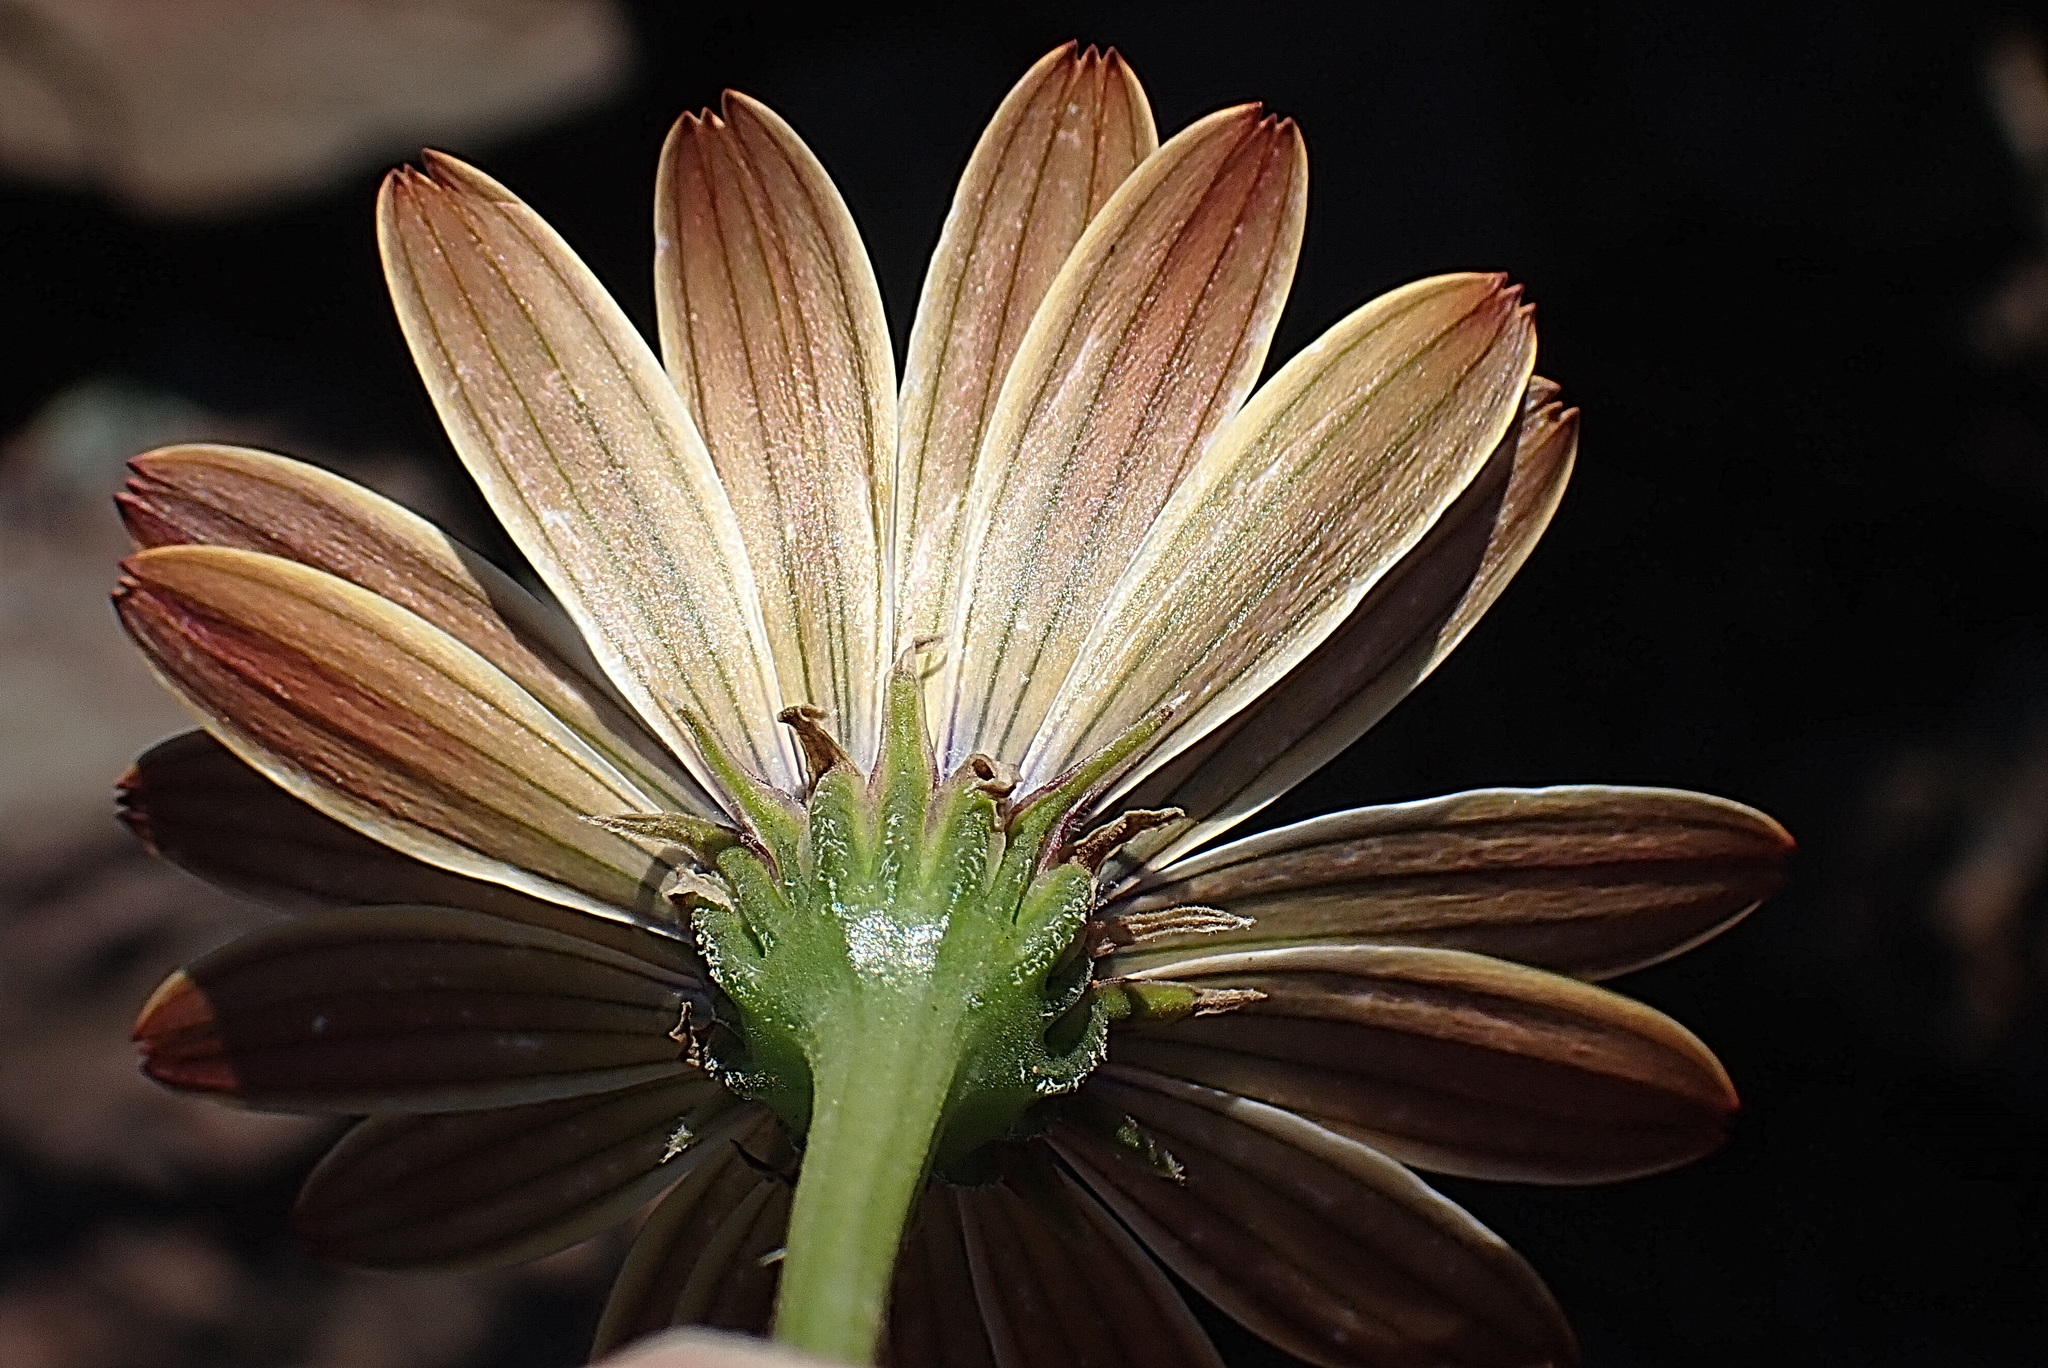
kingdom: Plantae
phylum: Tracheophyta
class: Magnoliopsida
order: Asterales
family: Asteraceae
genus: Dimorphotheca
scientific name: Dimorphotheca nudicaulis
